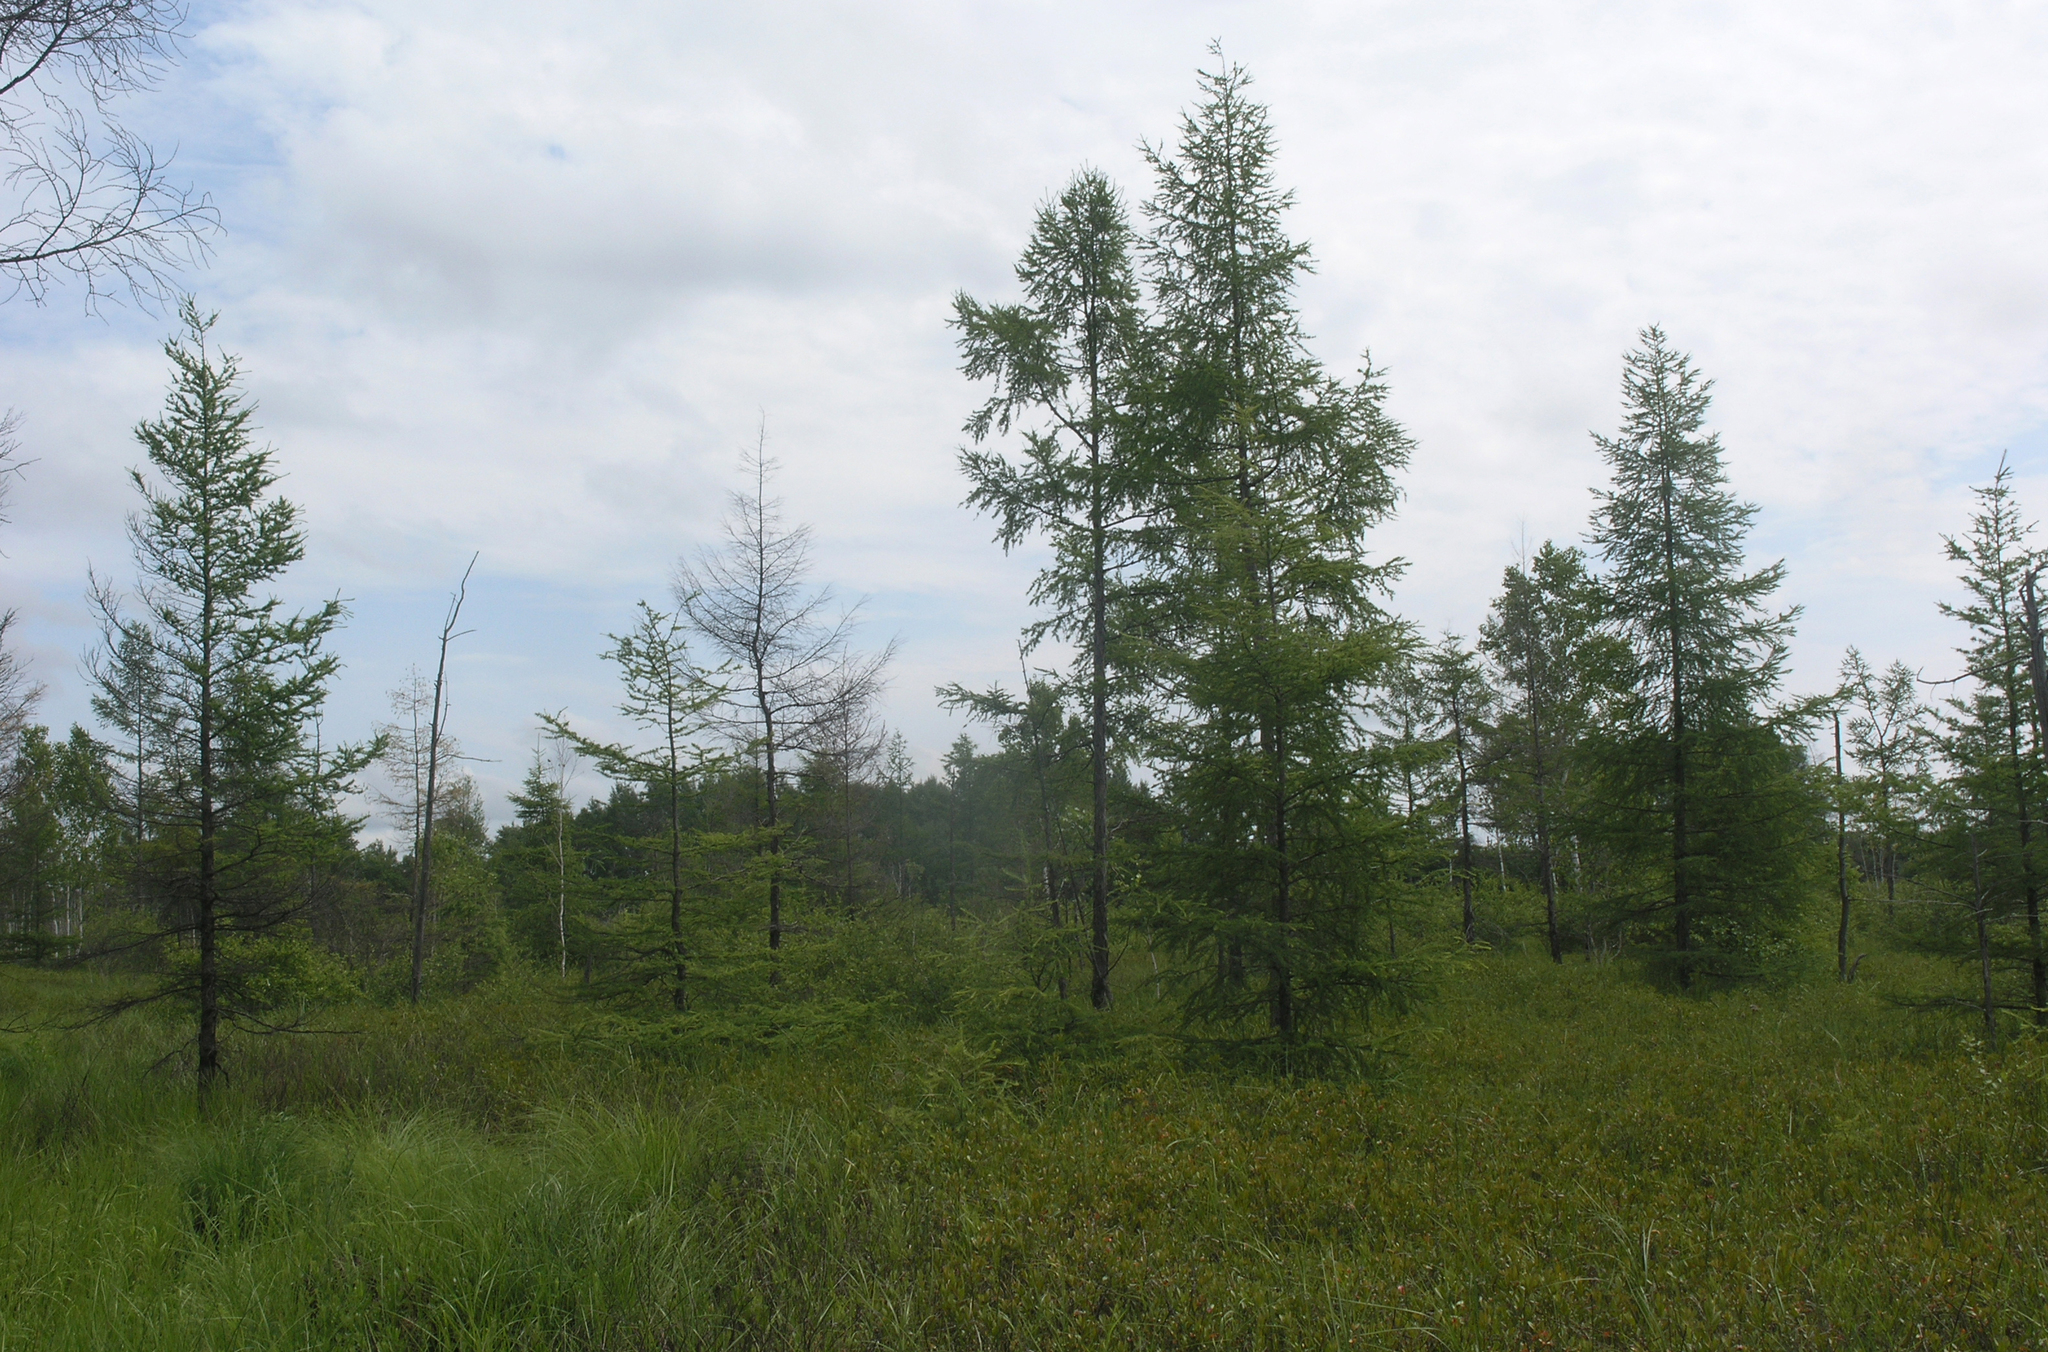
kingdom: Plantae
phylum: Tracheophyta
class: Pinopsida
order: Pinales
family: Pinaceae
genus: Larix
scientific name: Larix gmelinii
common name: Dahurian larch
